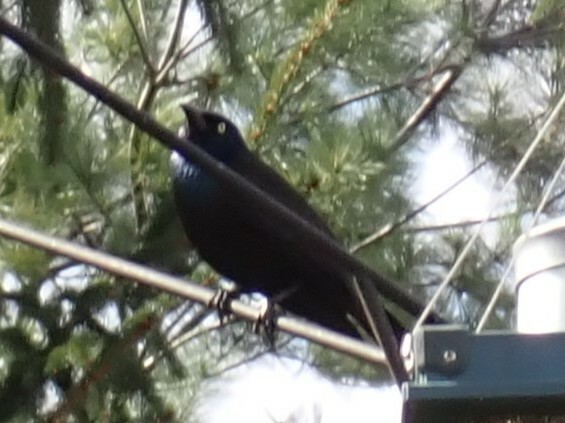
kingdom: Animalia
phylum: Chordata
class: Aves
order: Passeriformes
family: Icteridae
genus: Quiscalus
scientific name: Quiscalus quiscula
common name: Common grackle
